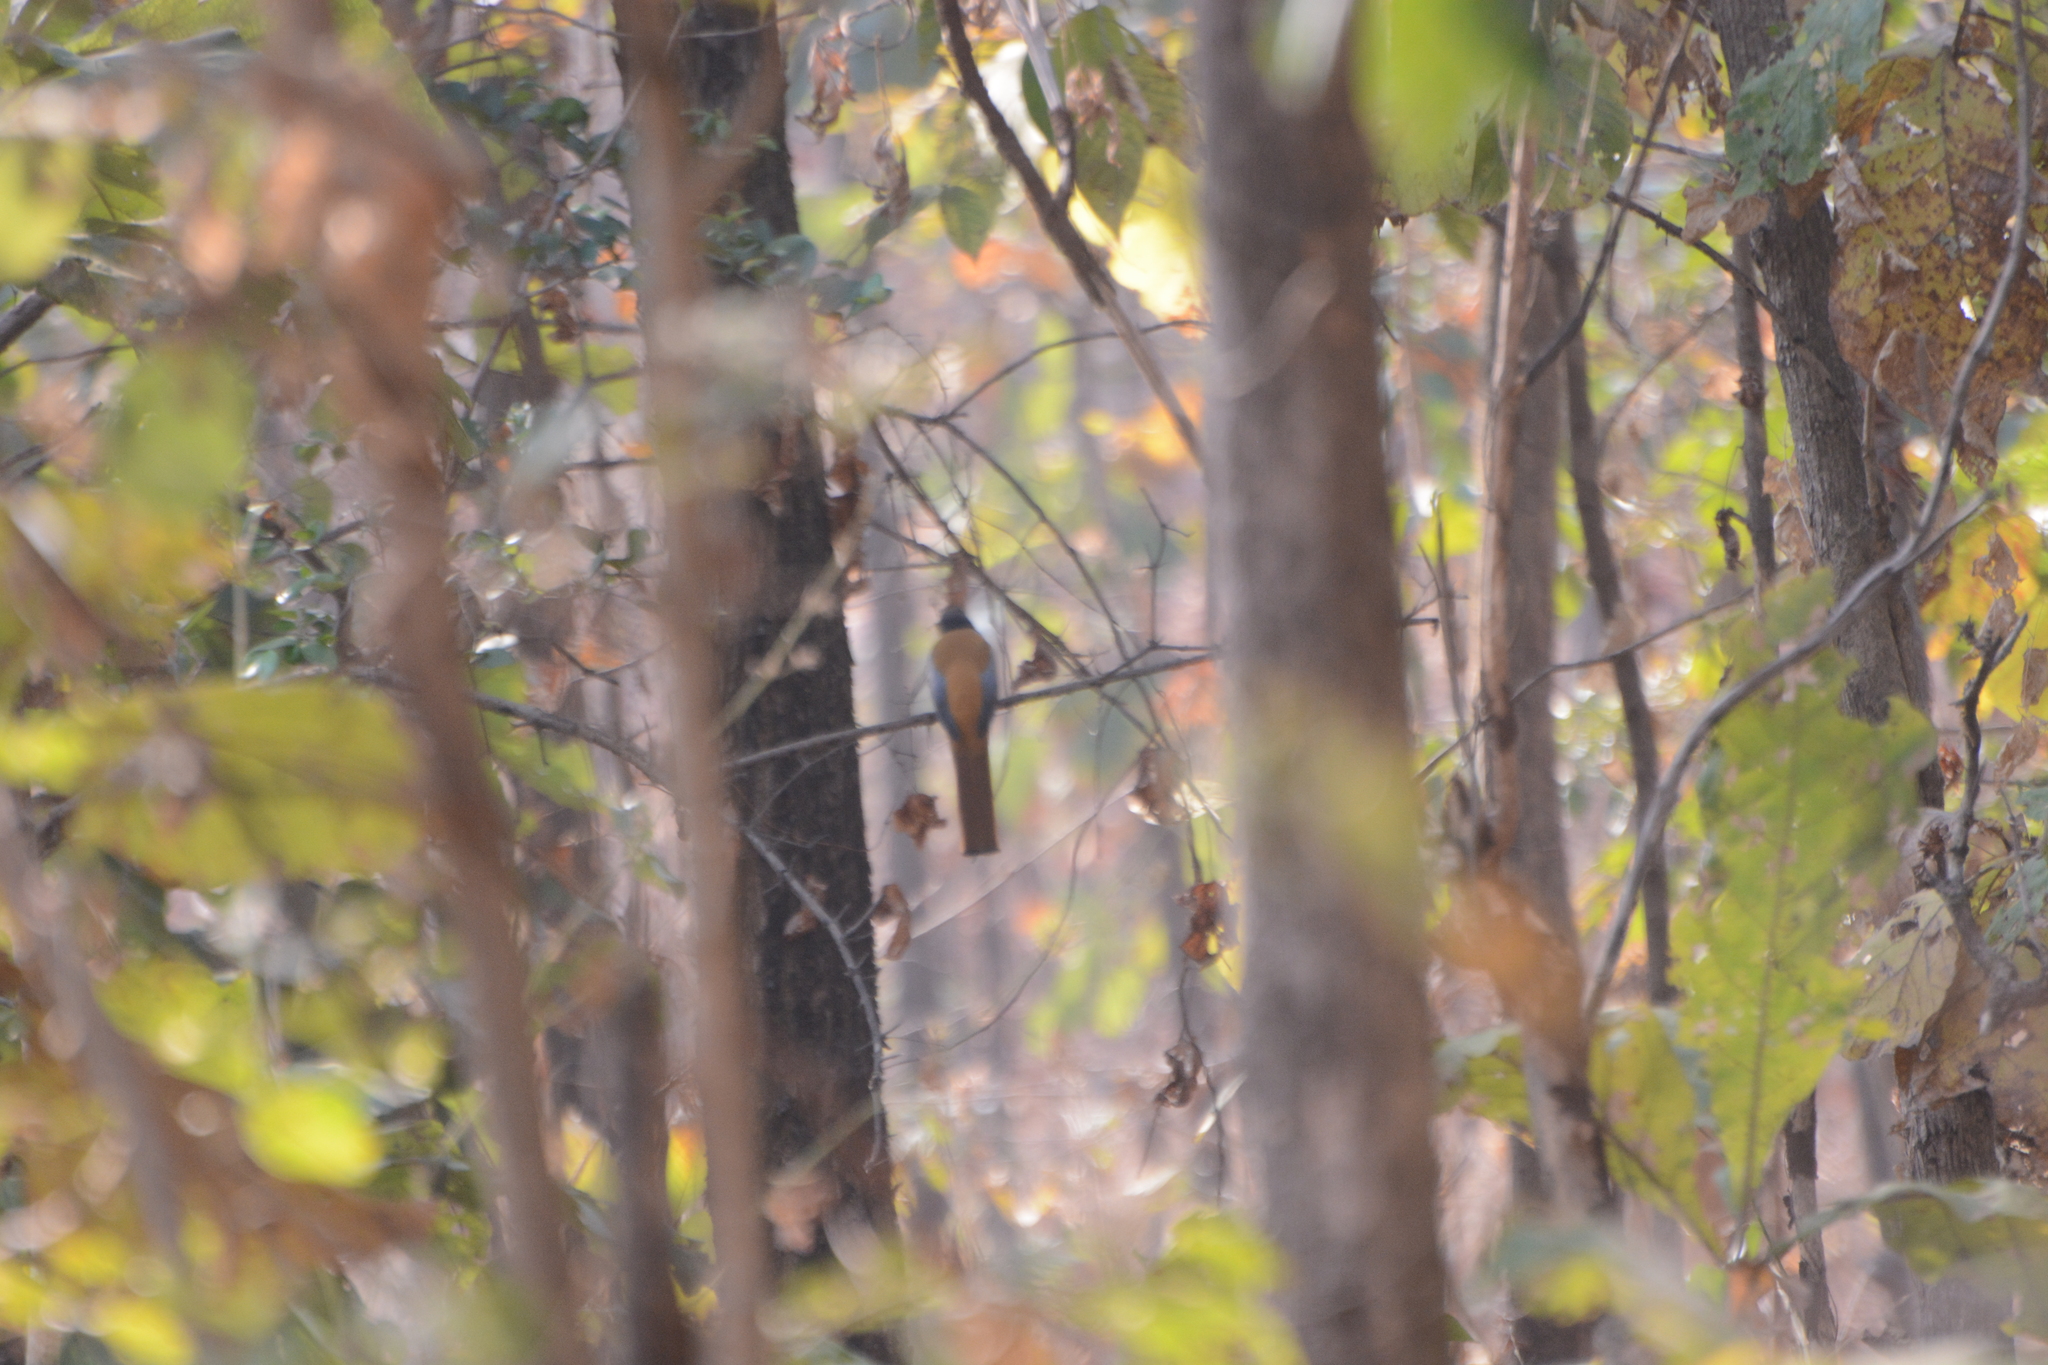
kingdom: Animalia
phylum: Chordata
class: Aves
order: Trogoniformes
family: Trogonidae
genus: Harpactes
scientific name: Harpactes fasciatus
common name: Malabar trogon
